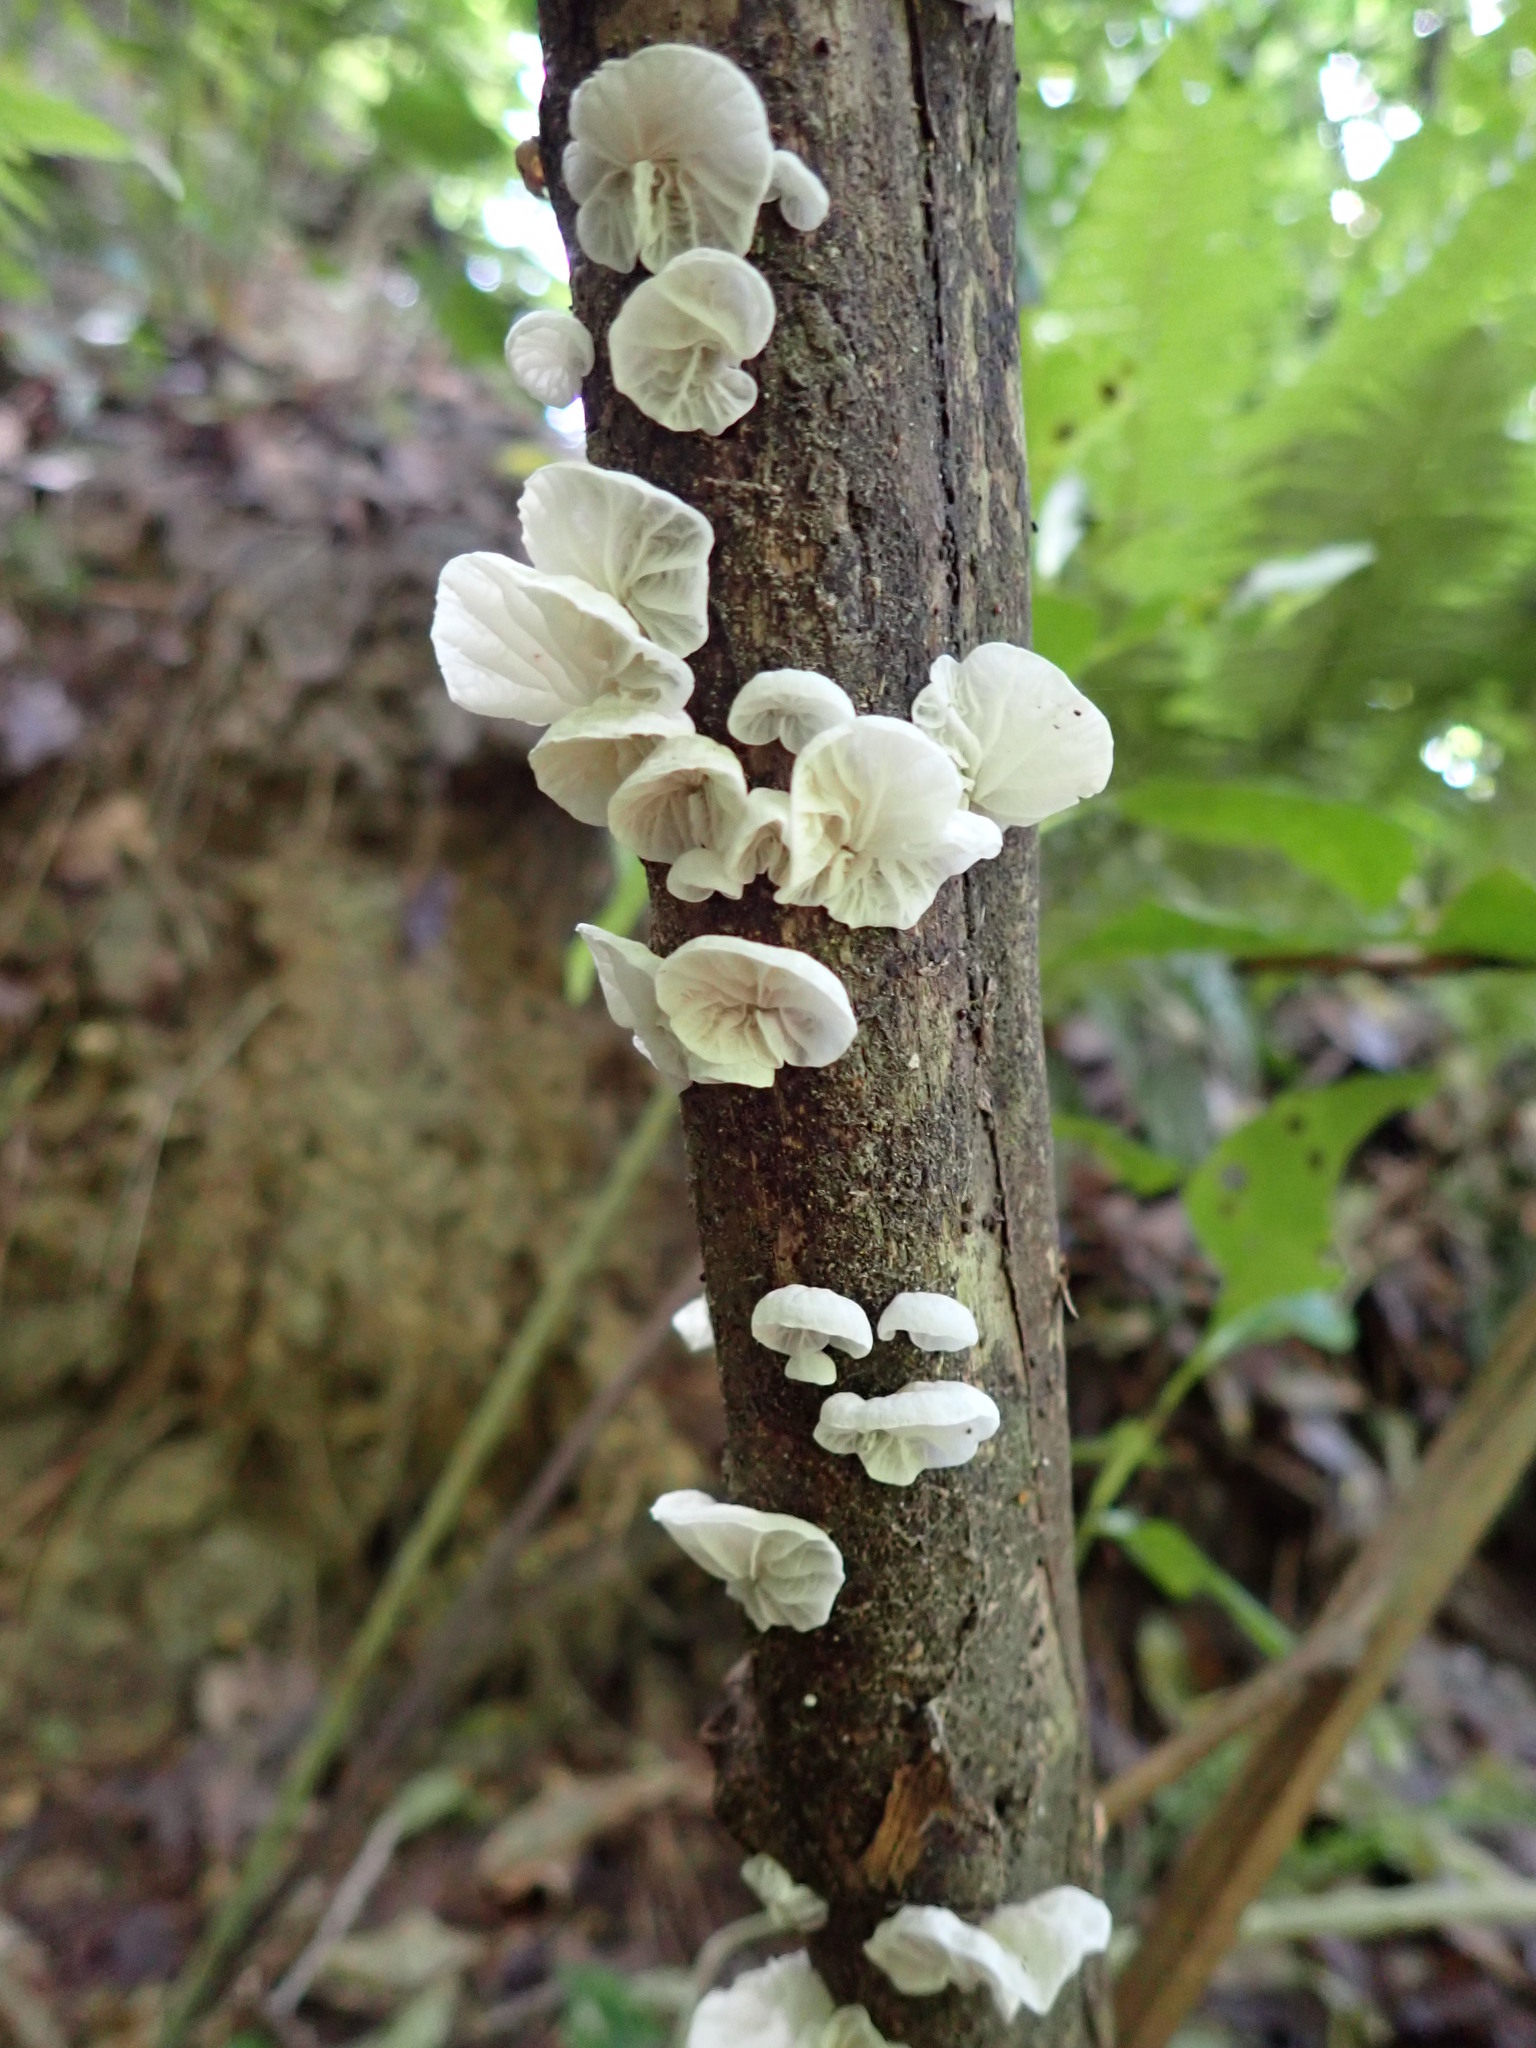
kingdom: Fungi
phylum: Basidiomycota
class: Agaricomycetes
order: Agaricales
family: Marasmiaceae
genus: Campanella
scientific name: Campanella tristis
